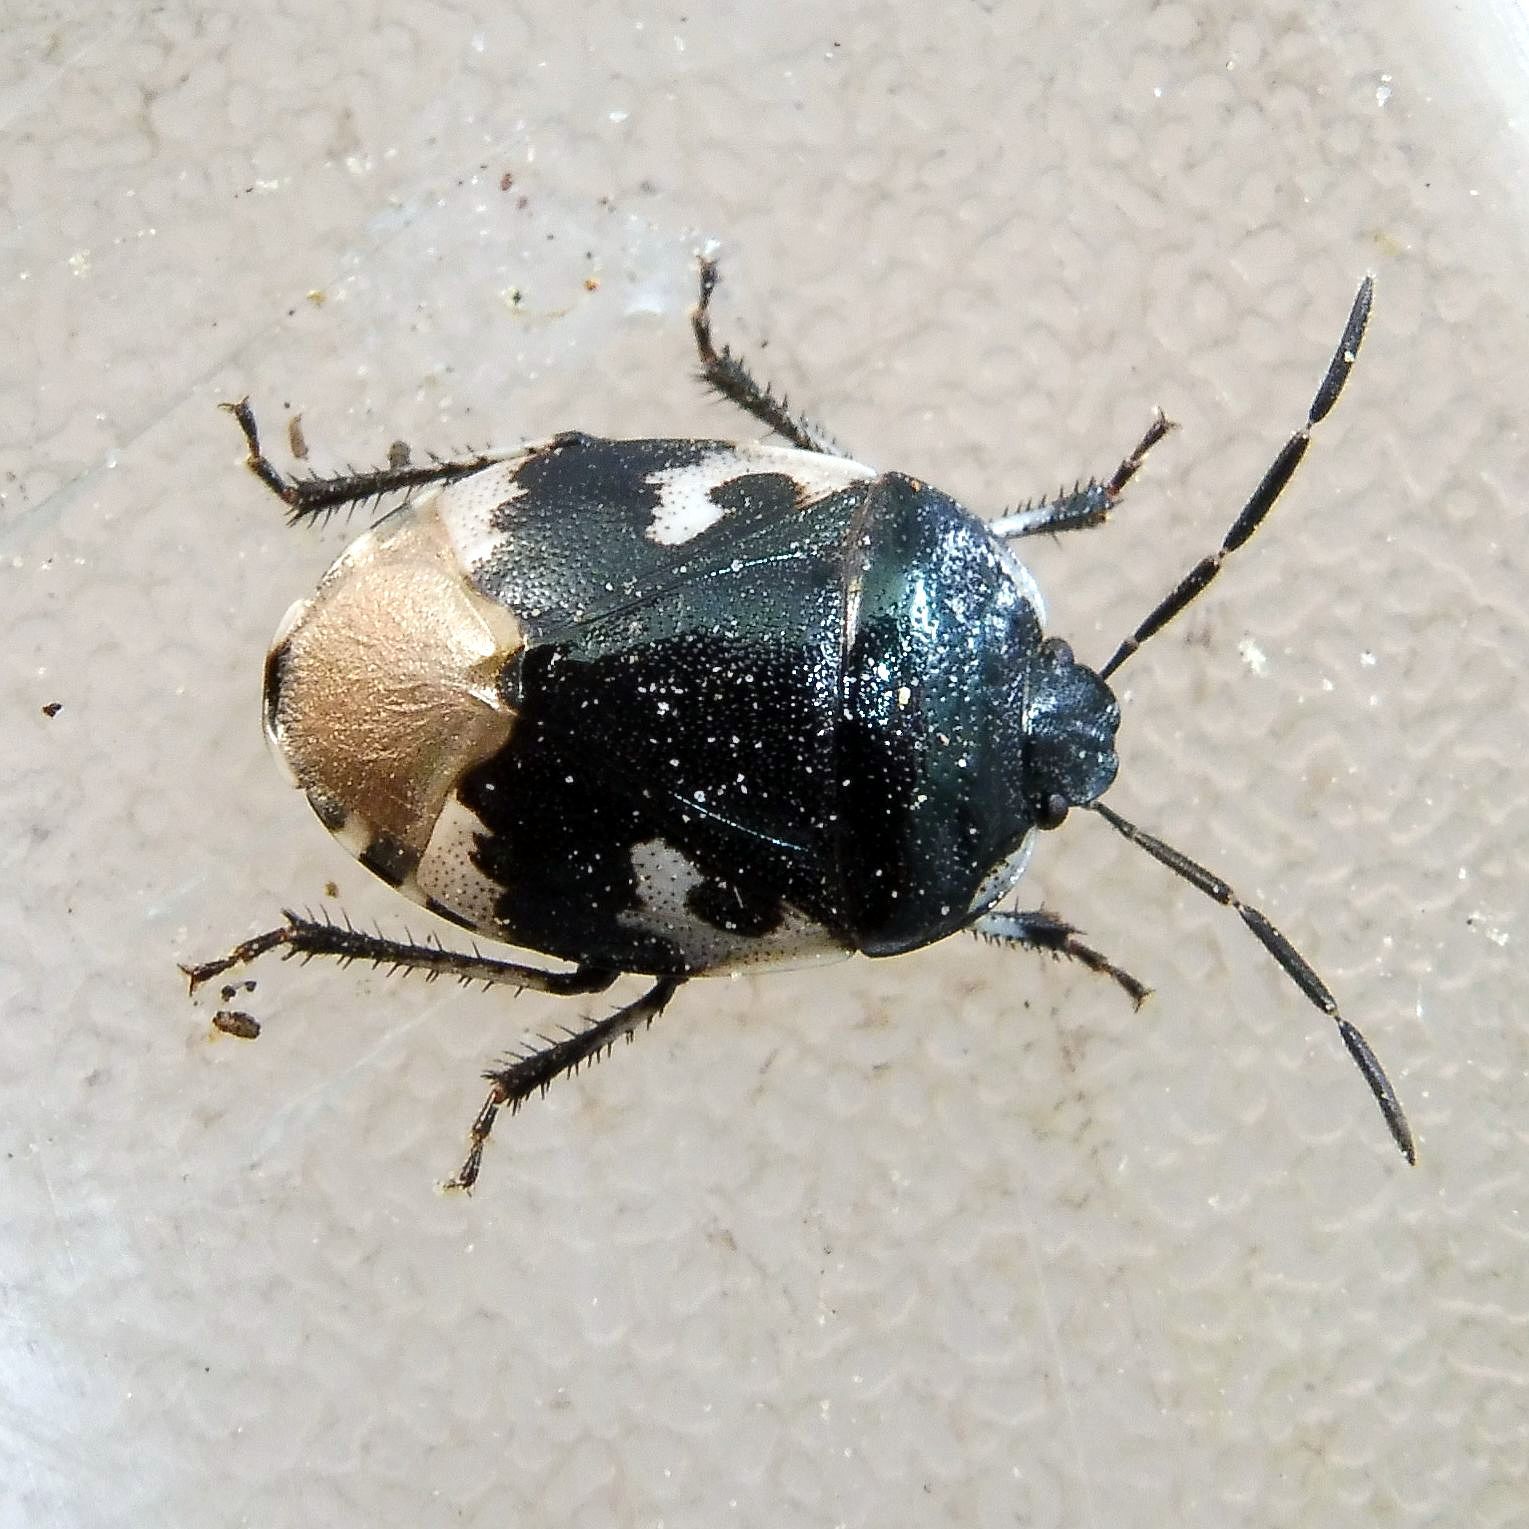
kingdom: Animalia
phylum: Arthropoda
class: Insecta
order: Hemiptera
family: Cydnidae
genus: Tritomegas
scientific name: Tritomegas bicolor
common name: Pied shieldbug
